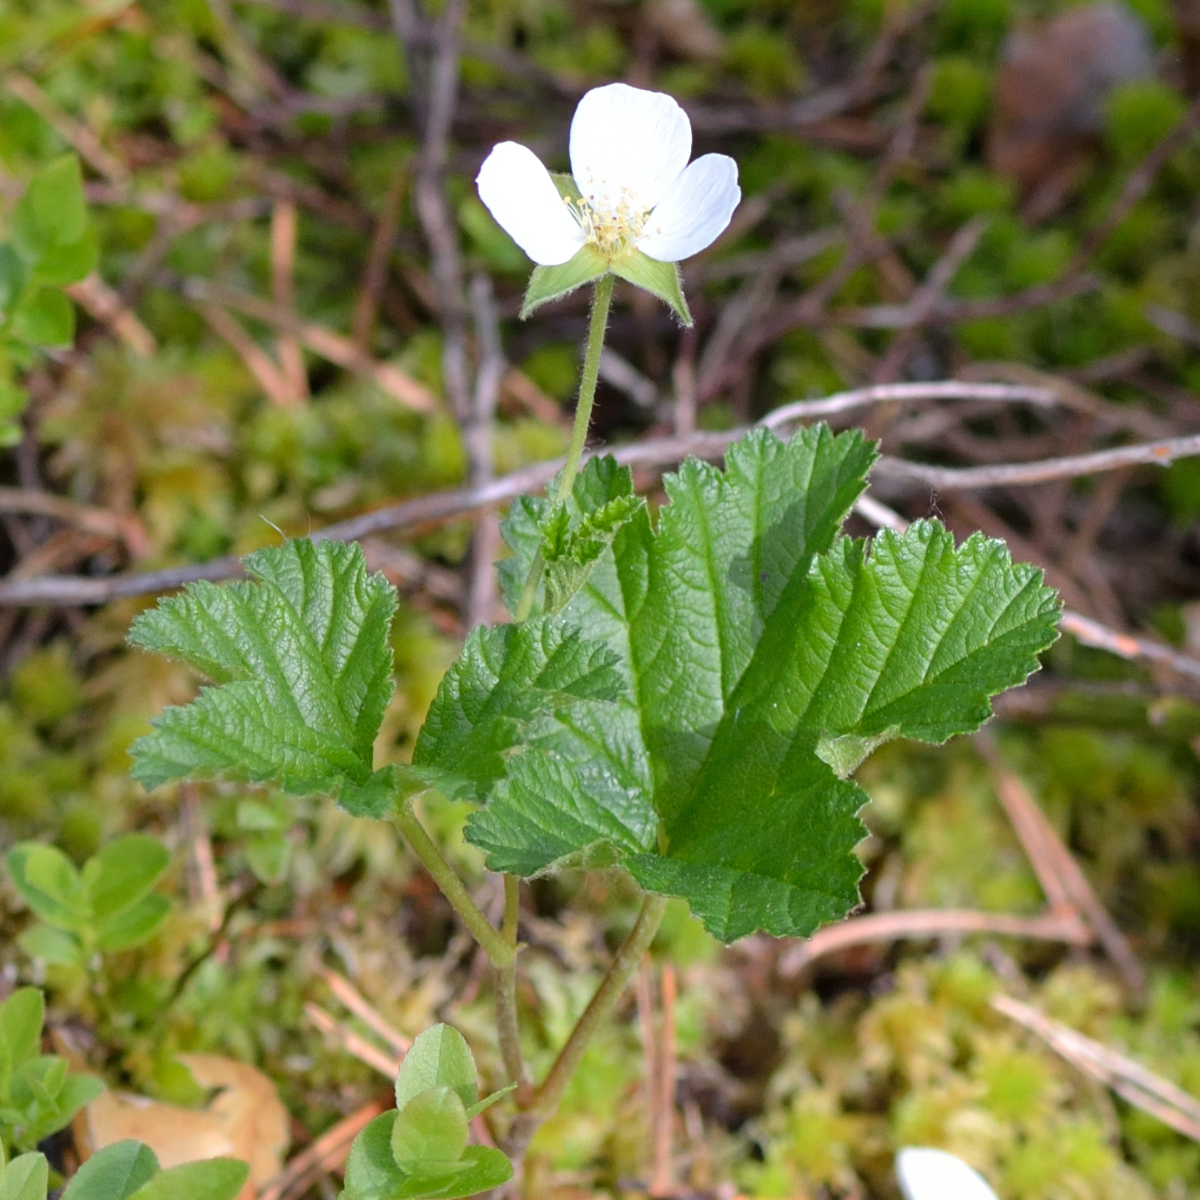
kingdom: Plantae
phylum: Tracheophyta
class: Magnoliopsida
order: Rosales
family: Rosaceae
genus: Rubus
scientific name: Rubus chamaemorus
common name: Cloudberry
